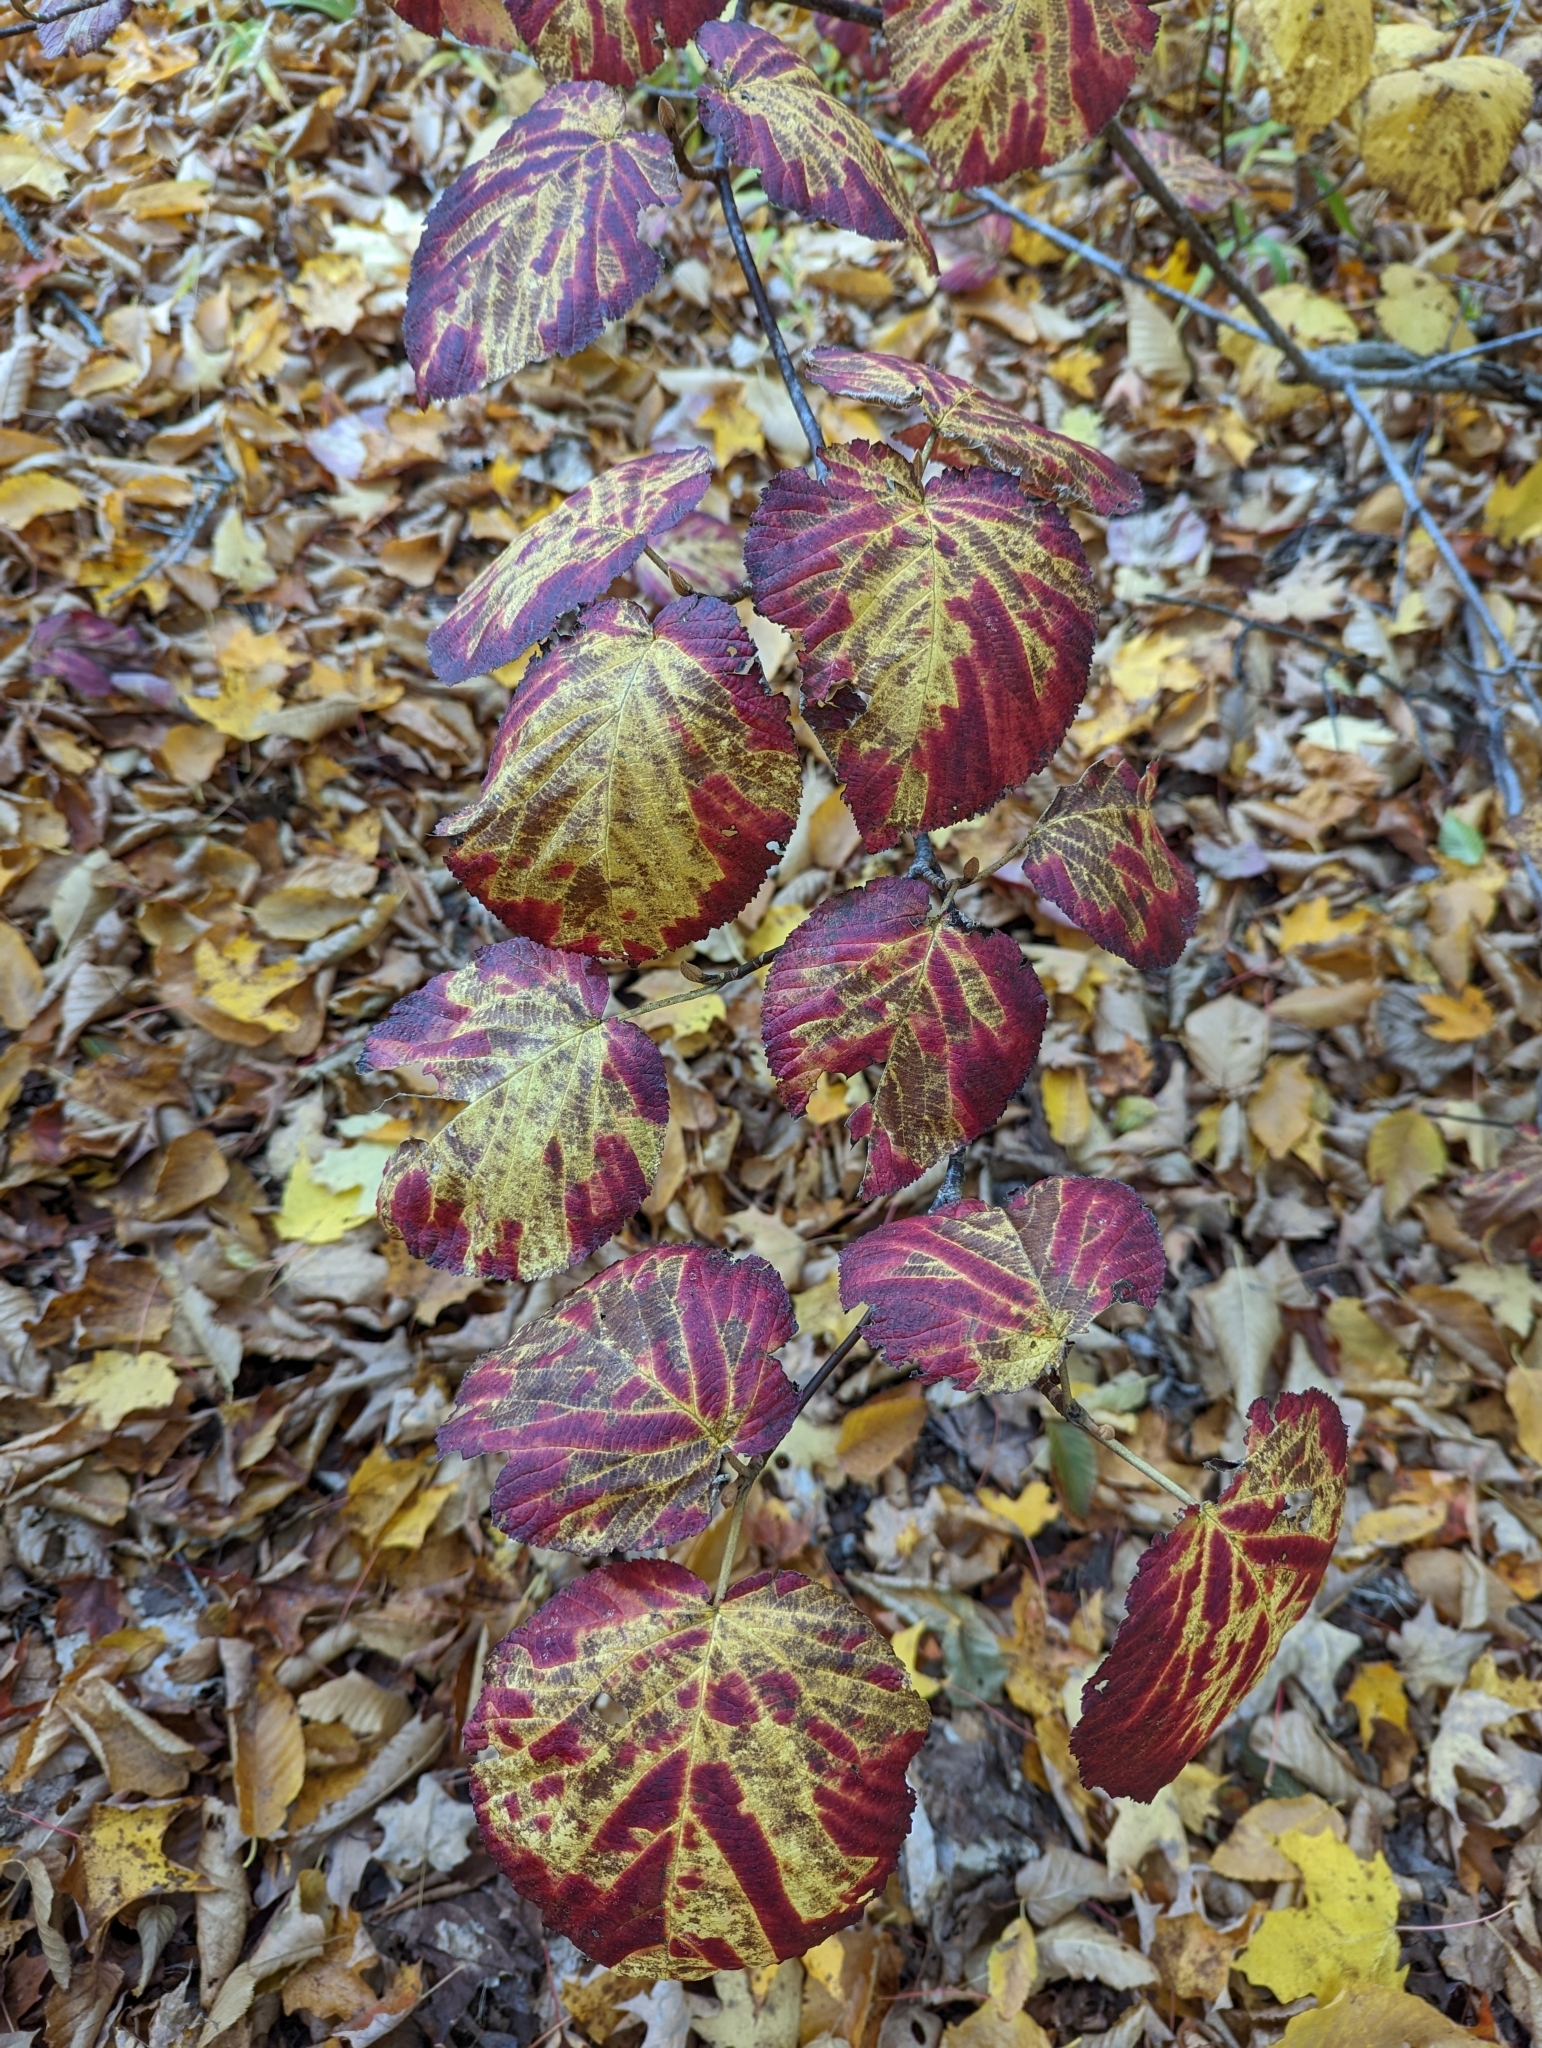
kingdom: Plantae
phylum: Tracheophyta
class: Magnoliopsida
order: Dipsacales
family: Viburnaceae
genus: Viburnum
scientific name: Viburnum lantanoides
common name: Hobblebush
